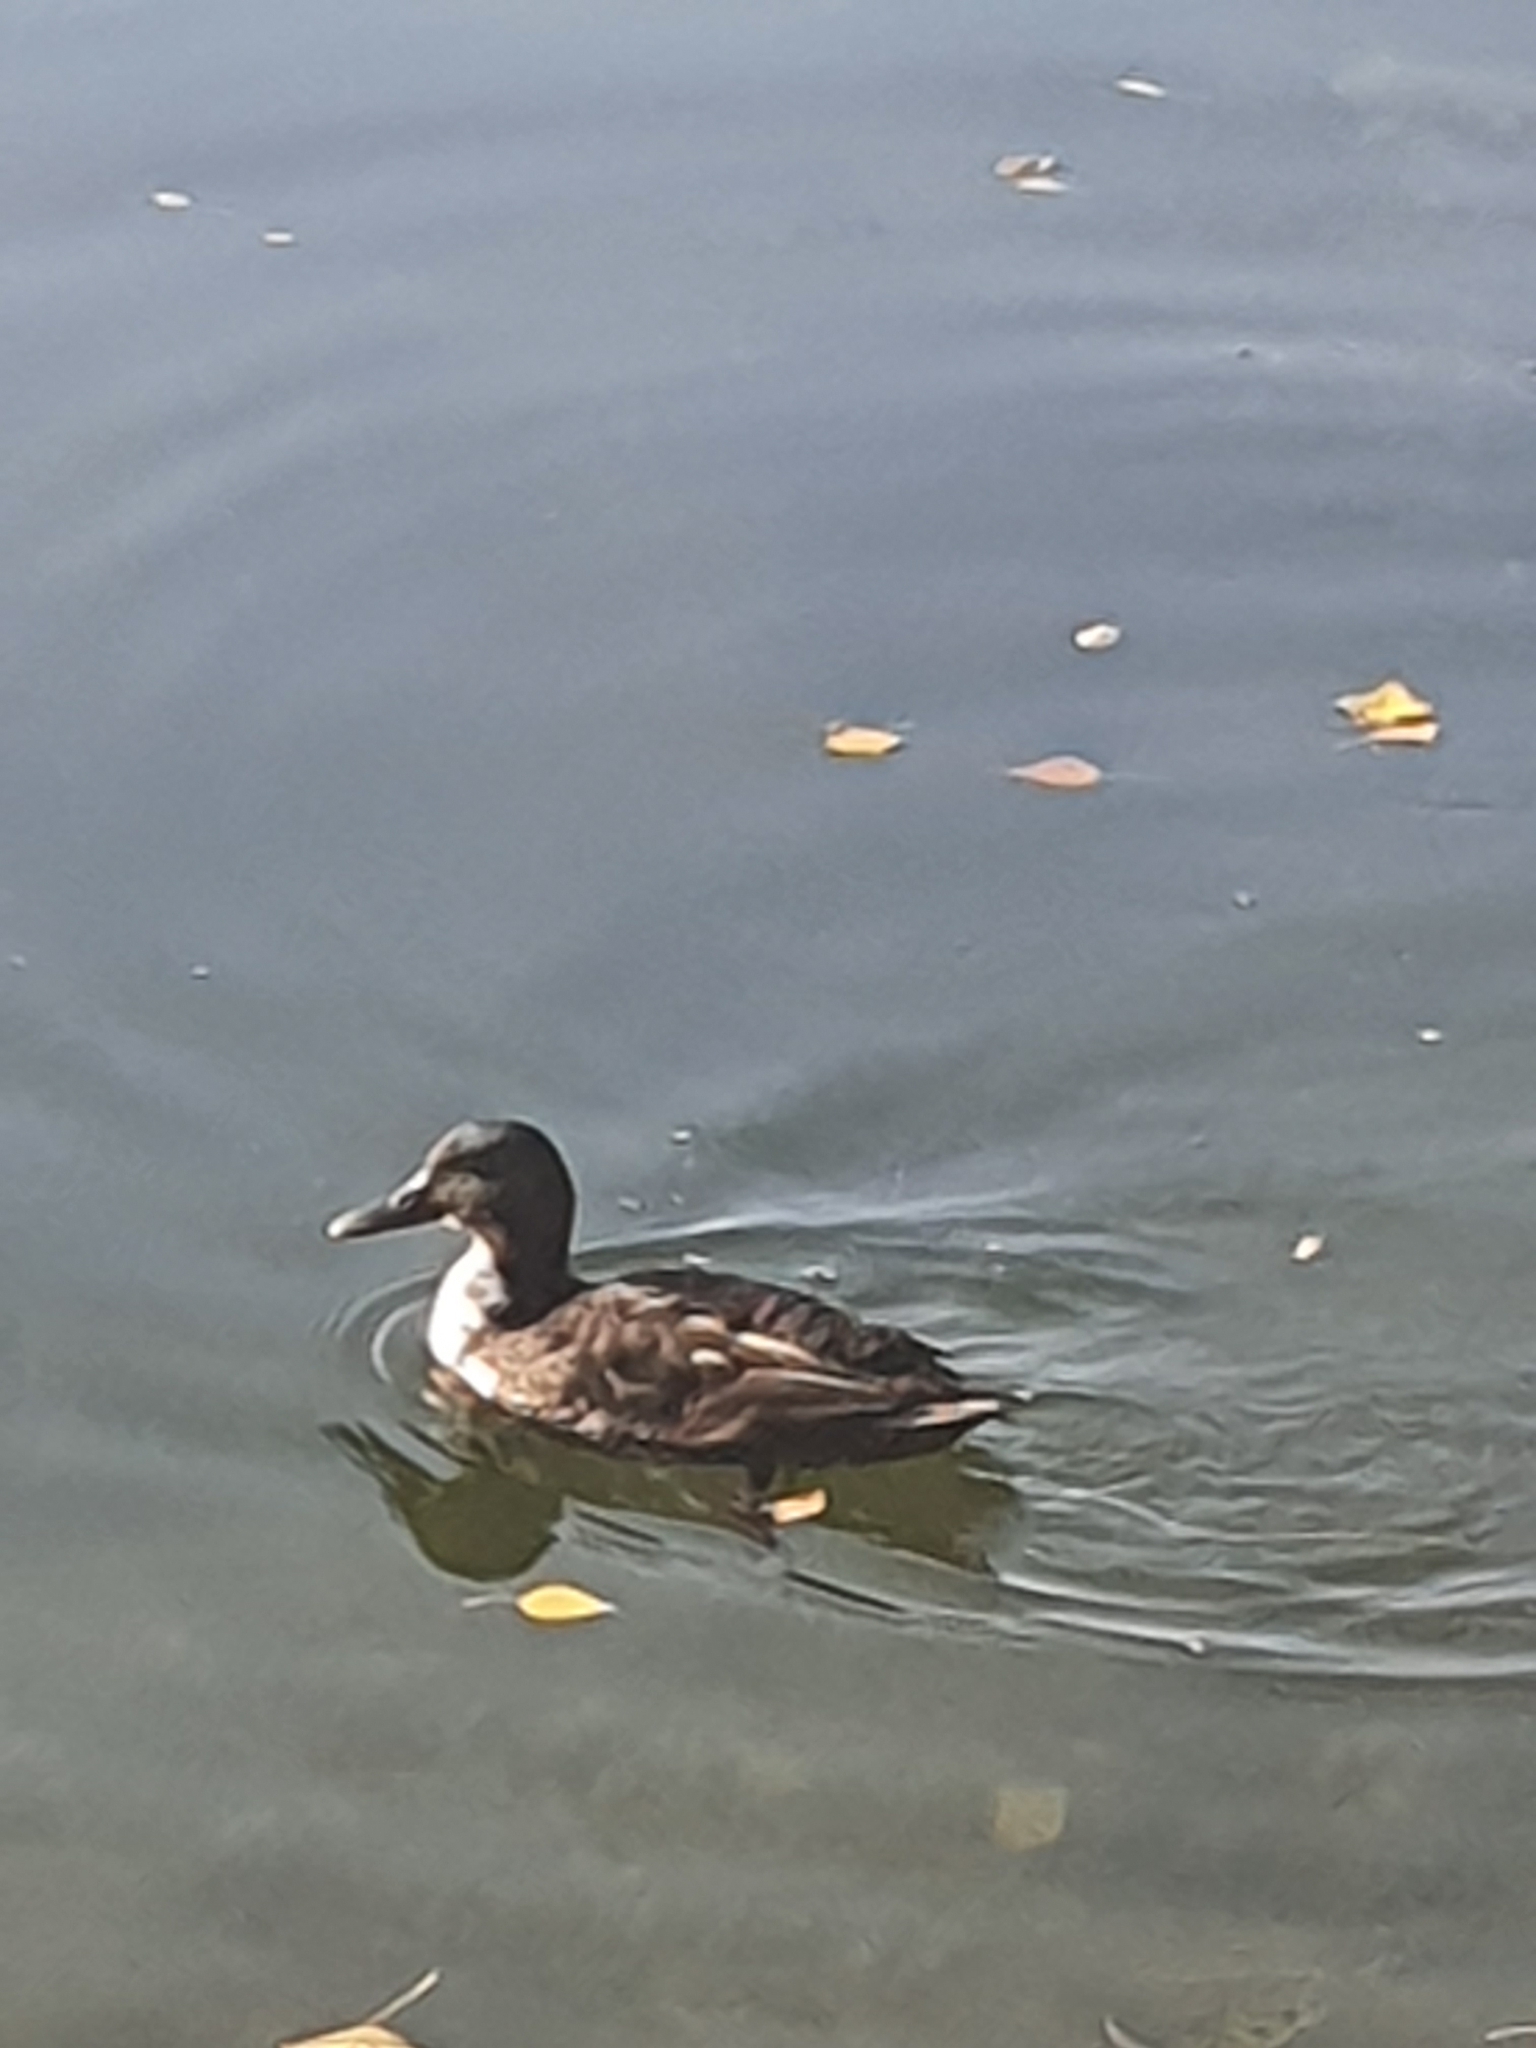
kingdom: Animalia
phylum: Chordata
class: Aves
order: Anseriformes
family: Anatidae
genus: Anas
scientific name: Anas platyrhynchos
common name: Mallard
